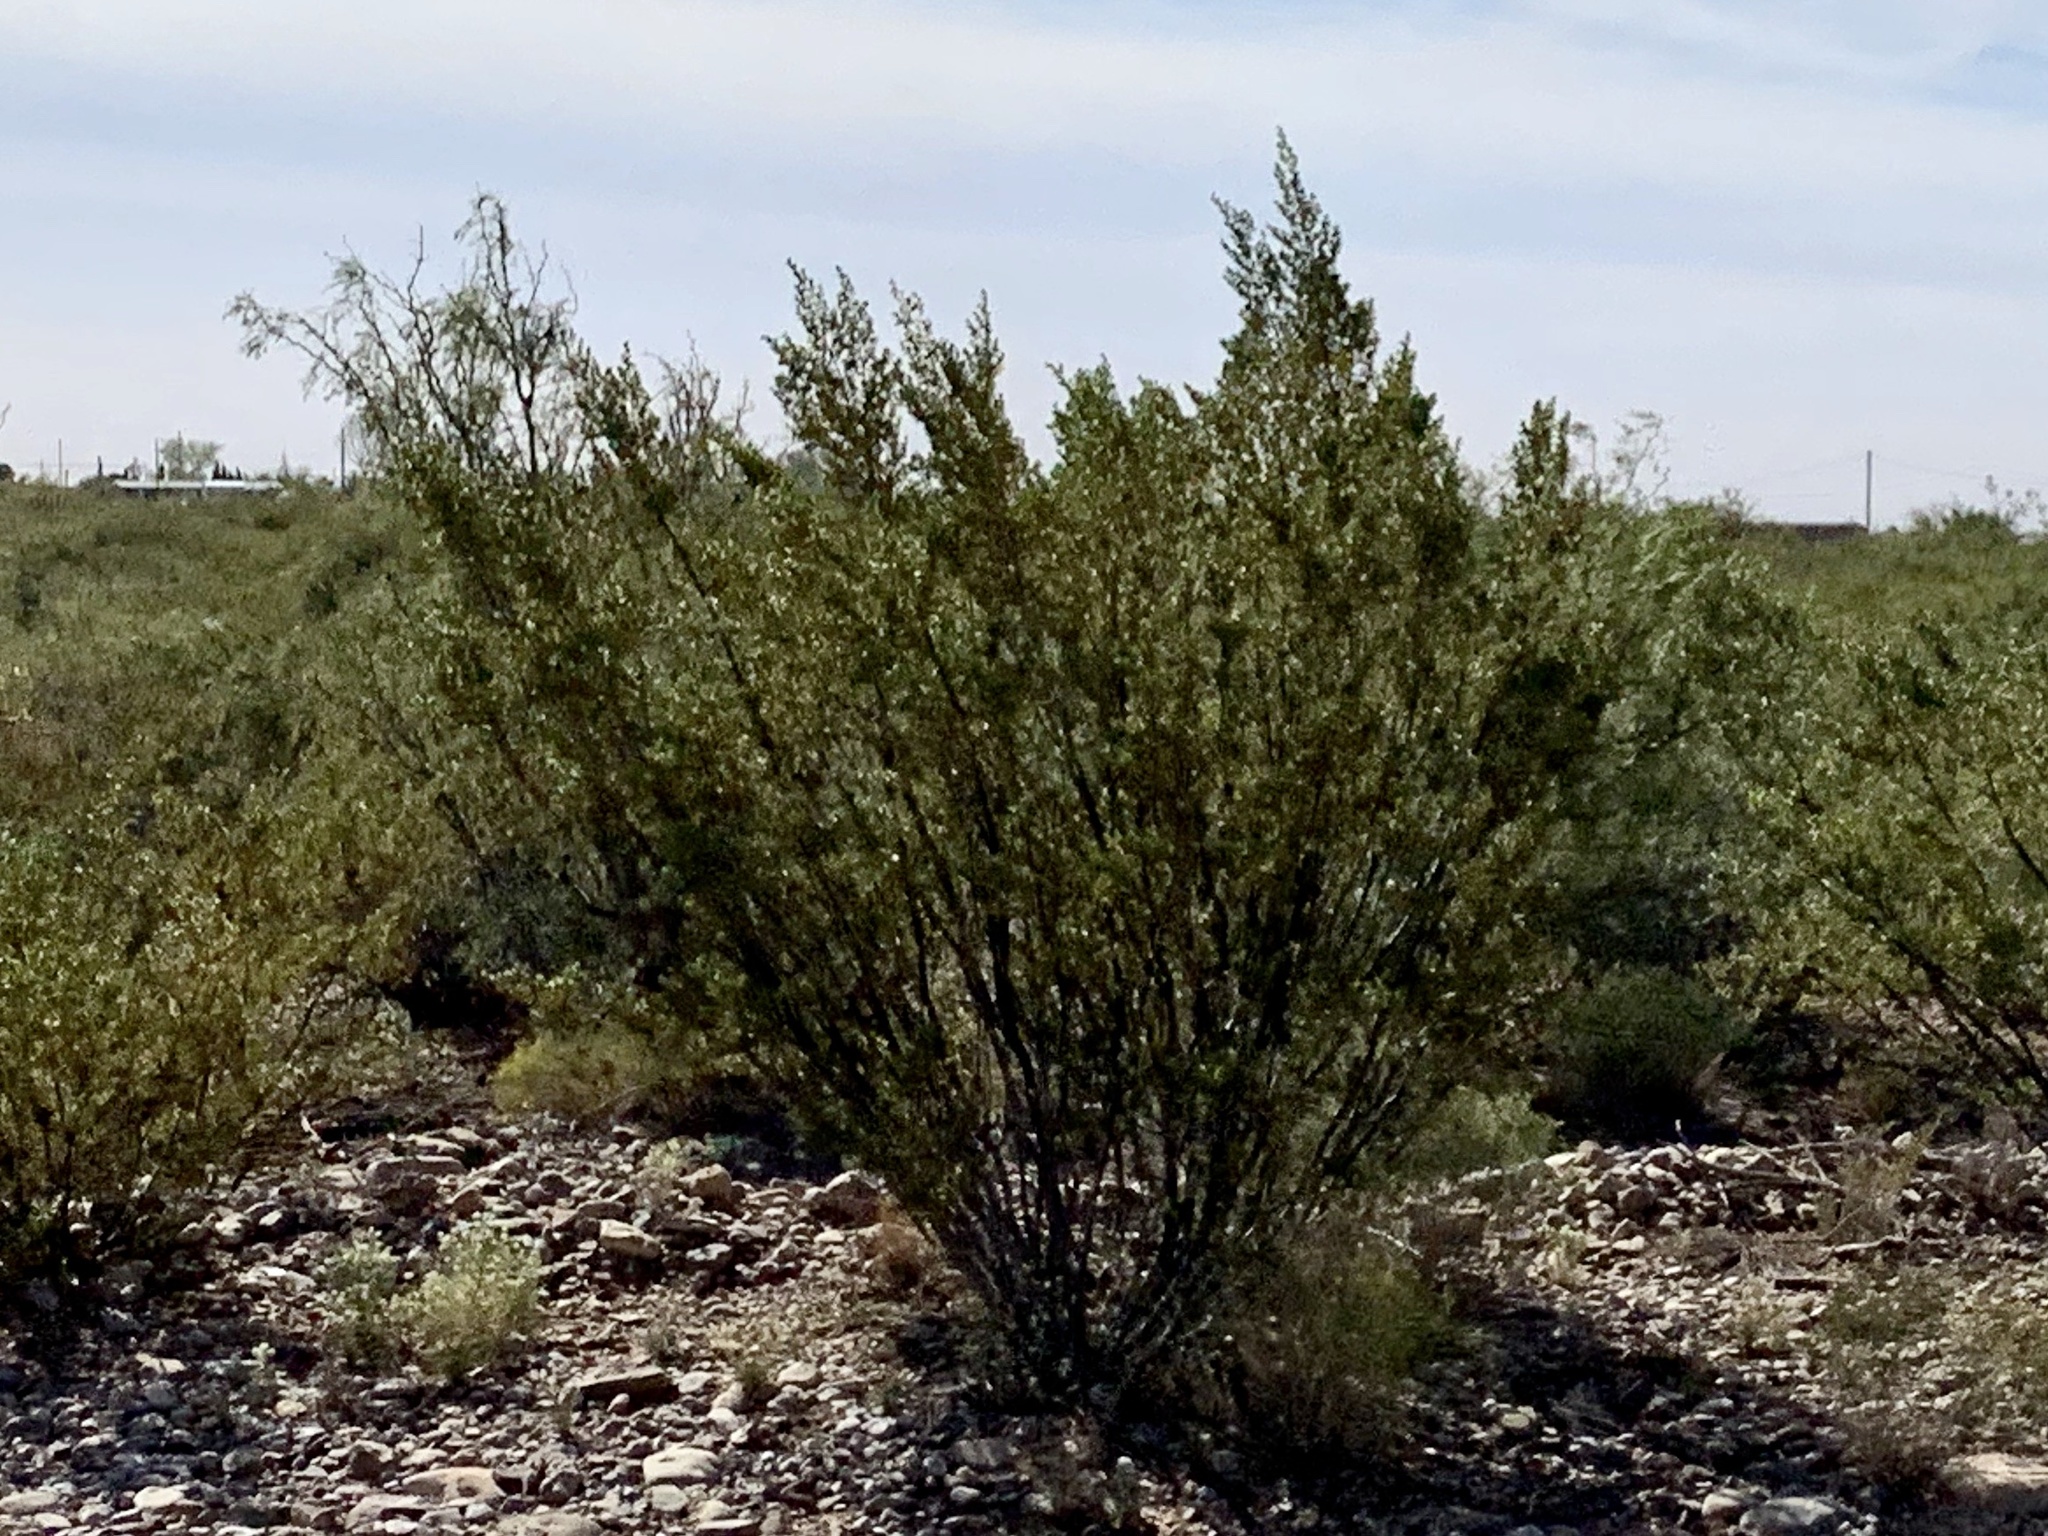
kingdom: Plantae
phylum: Tracheophyta
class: Magnoliopsida
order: Zygophyllales
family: Zygophyllaceae
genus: Larrea
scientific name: Larrea tridentata
